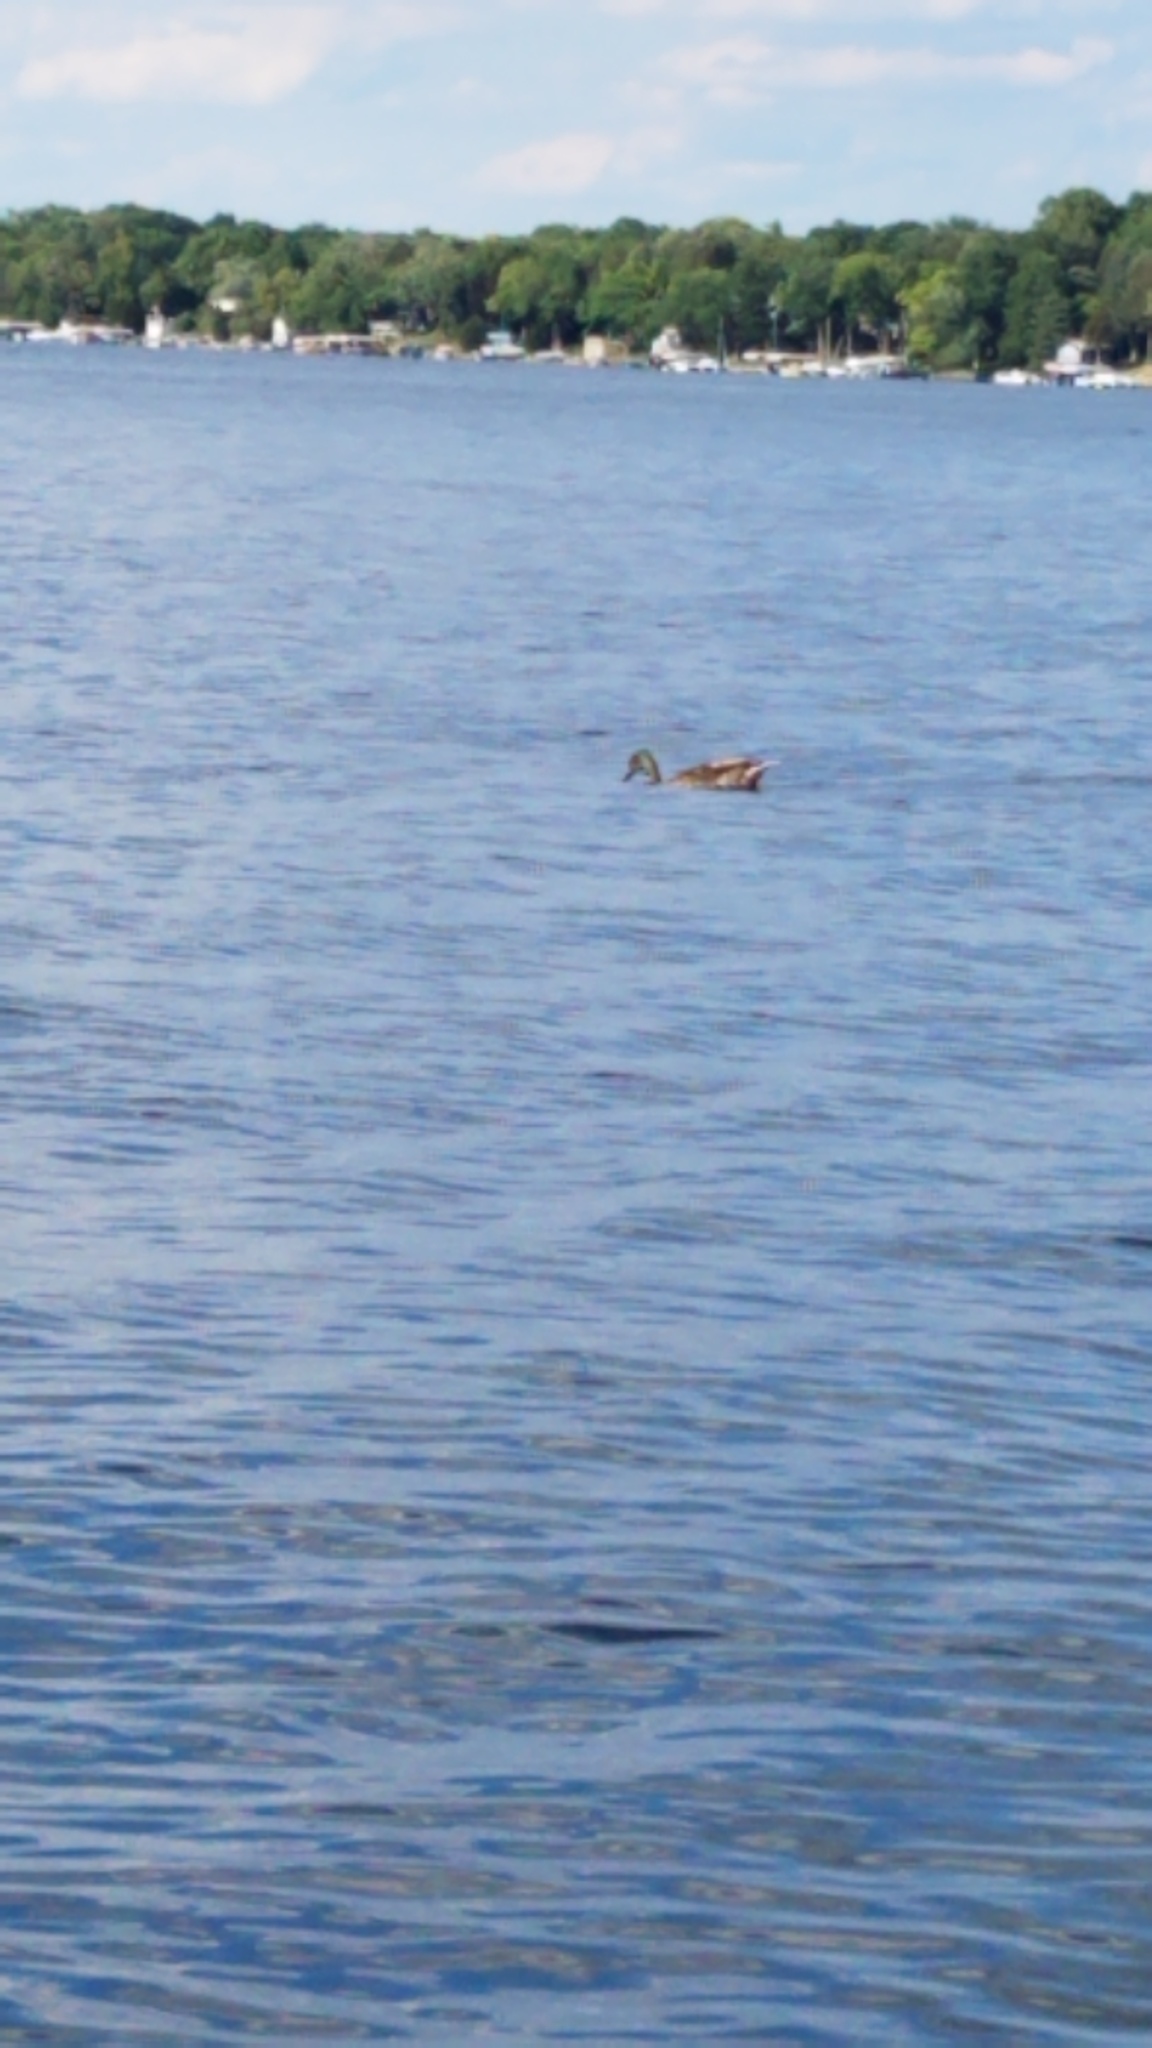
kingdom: Animalia
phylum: Chordata
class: Aves
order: Anseriformes
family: Anatidae
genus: Anas
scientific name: Anas platyrhynchos
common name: Mallard
